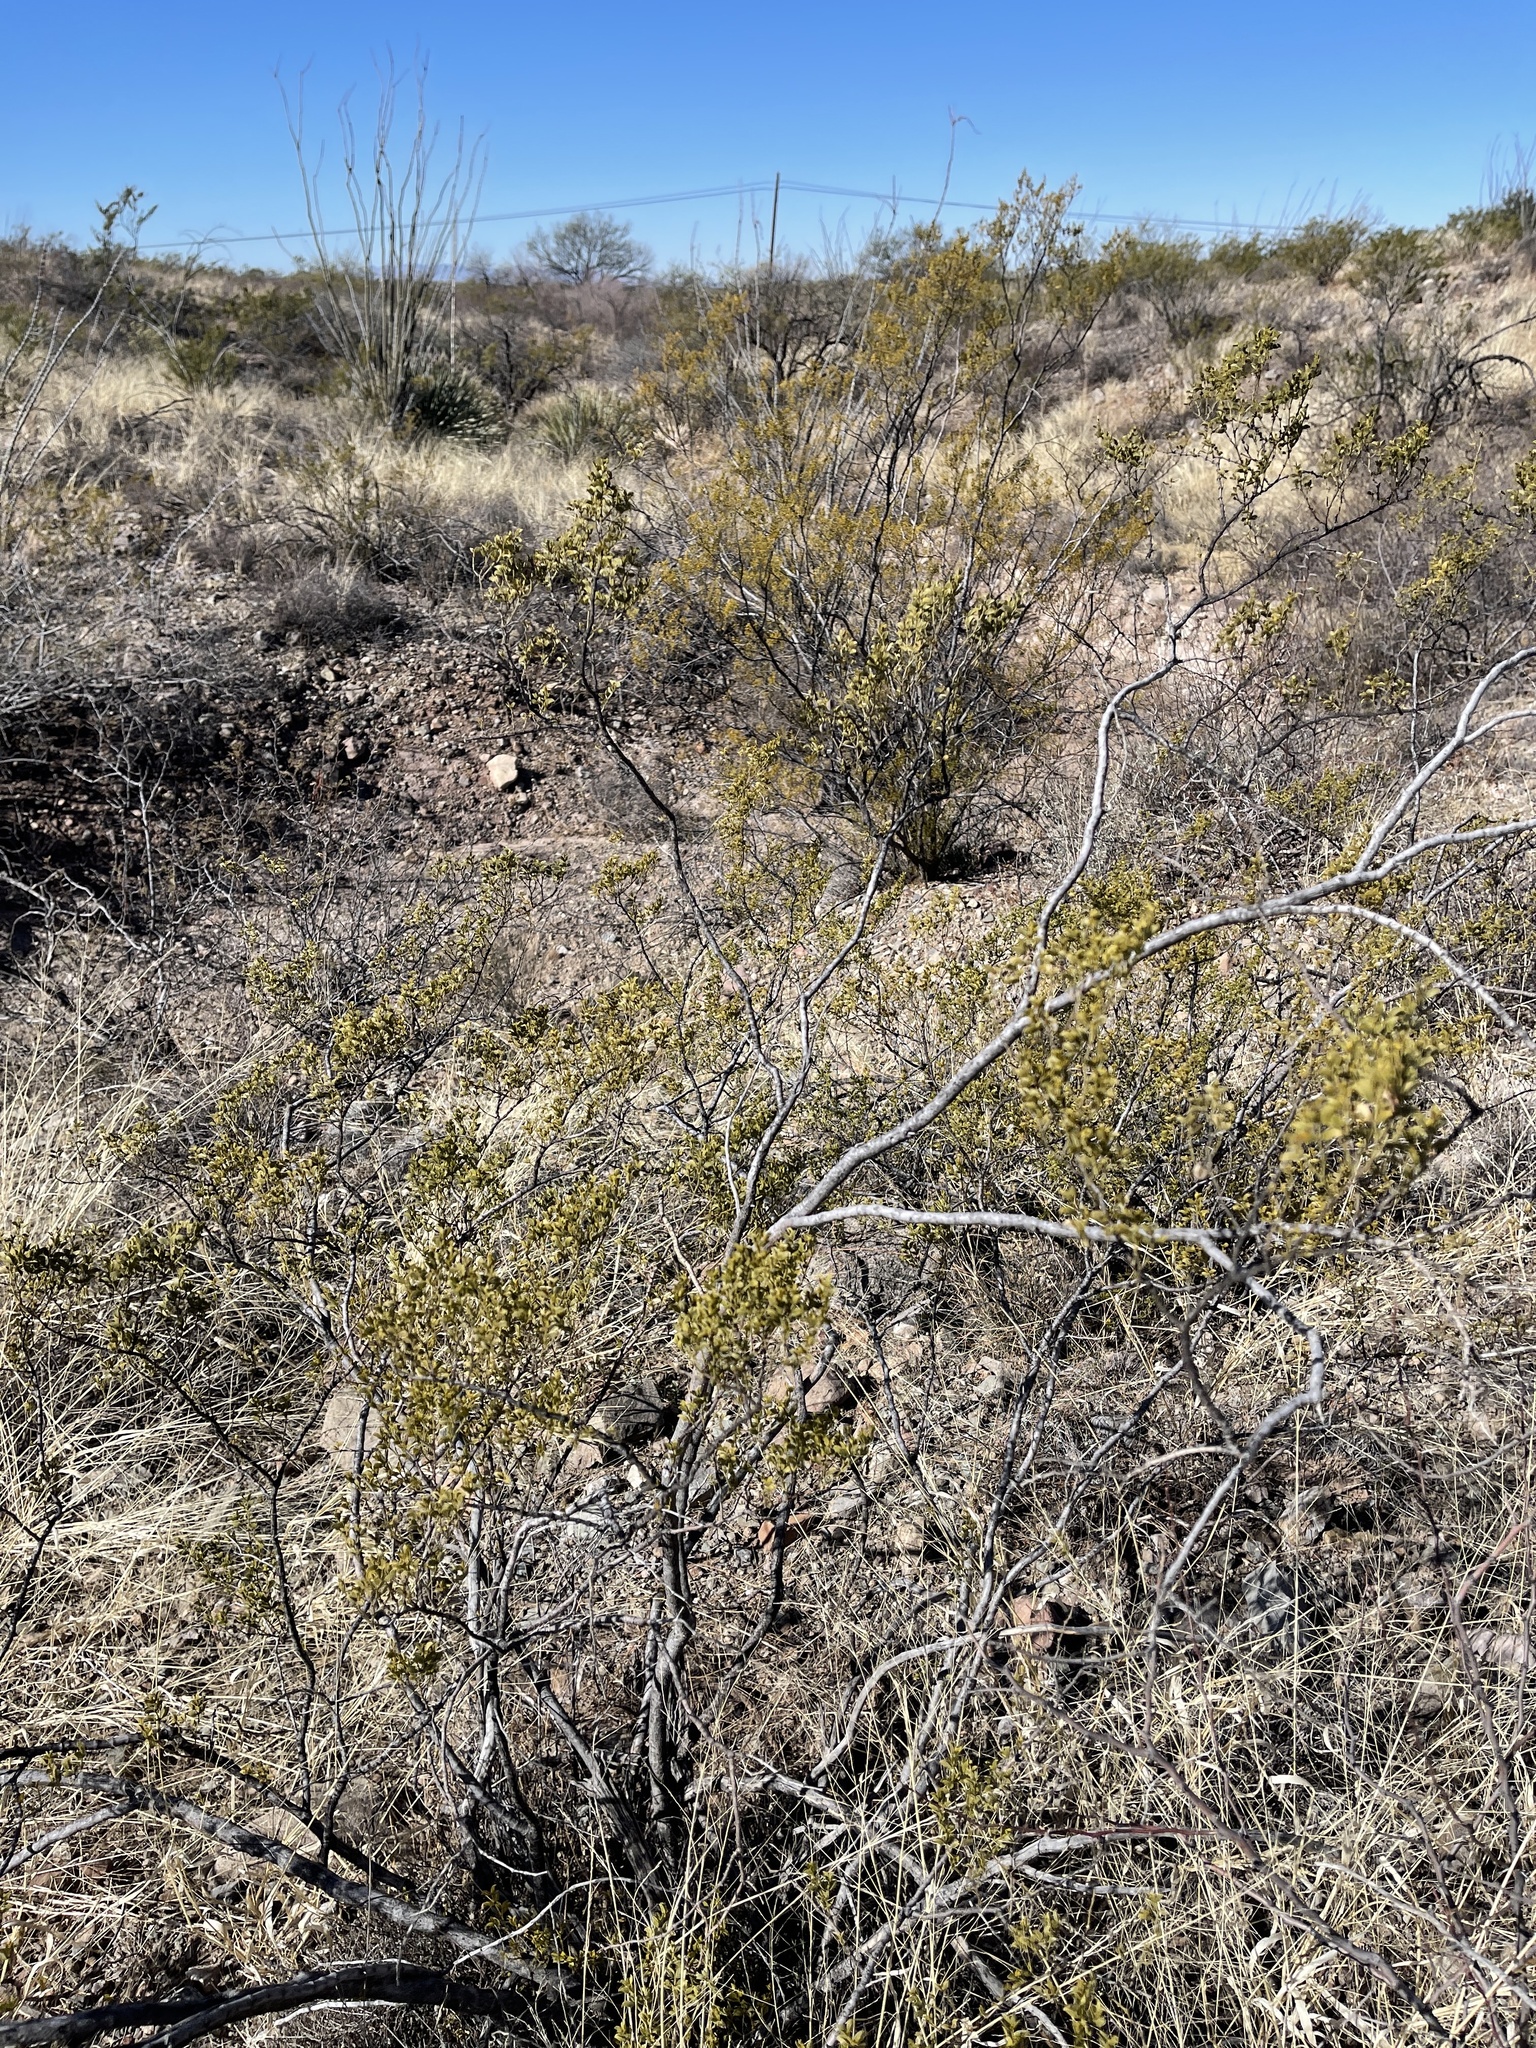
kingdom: Plantae
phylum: Tracheophyta
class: Magnoliopsida
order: Zygophyllales
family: Zygophyllaceae
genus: Larrea
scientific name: Larrea tridentata
